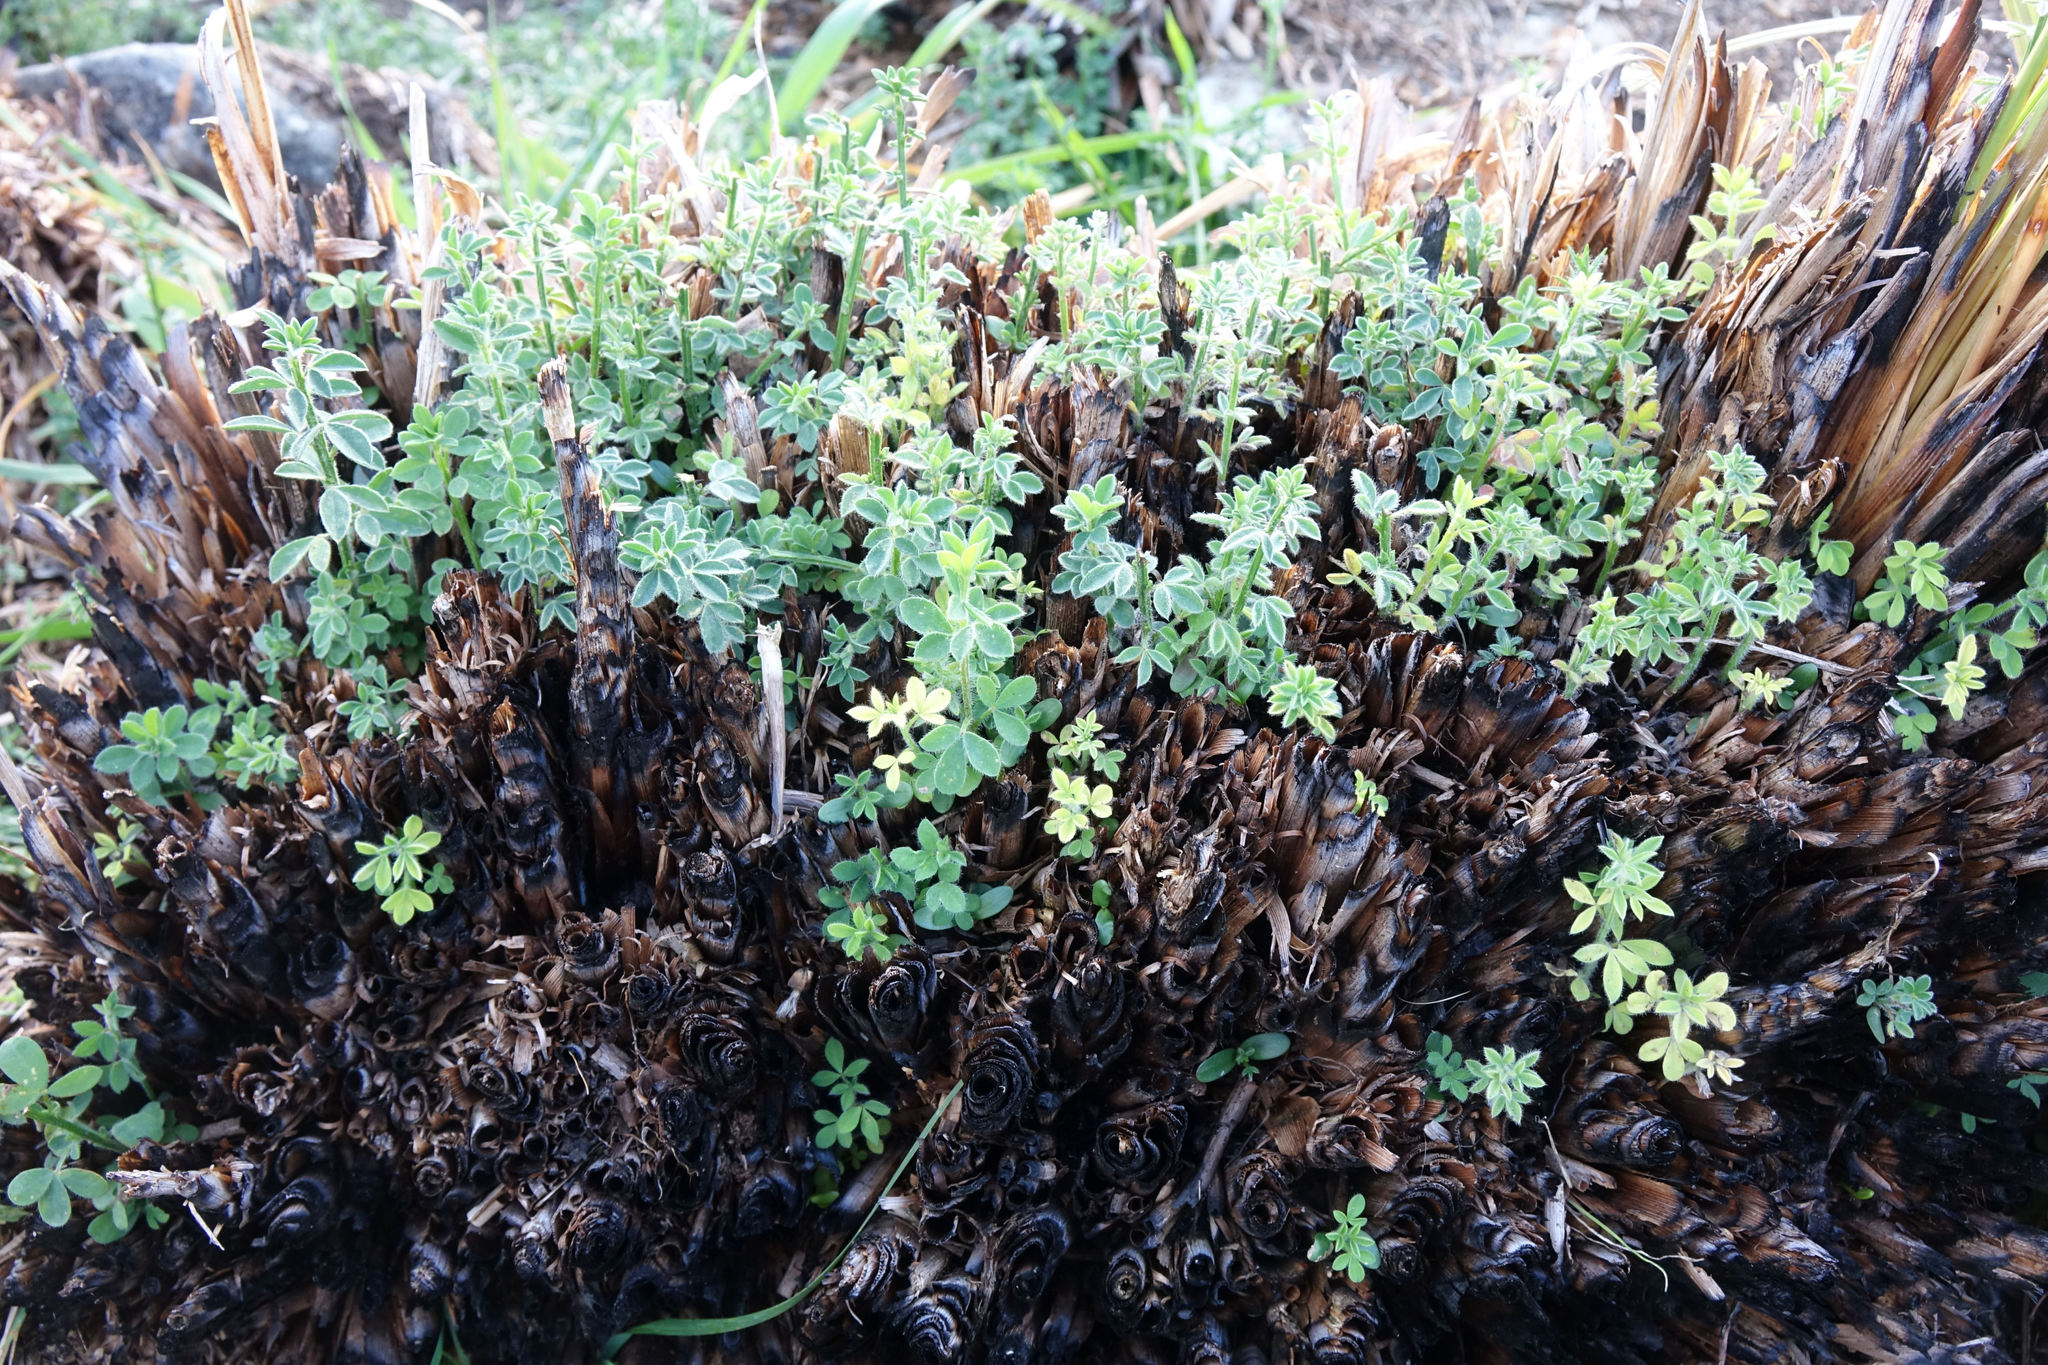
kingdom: Plantae
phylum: Tracheophyta
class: Magnoliopsida
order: Fabales
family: Fabaceae
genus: Cytisus
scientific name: Cytisus scoparius
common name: Scotch broom
